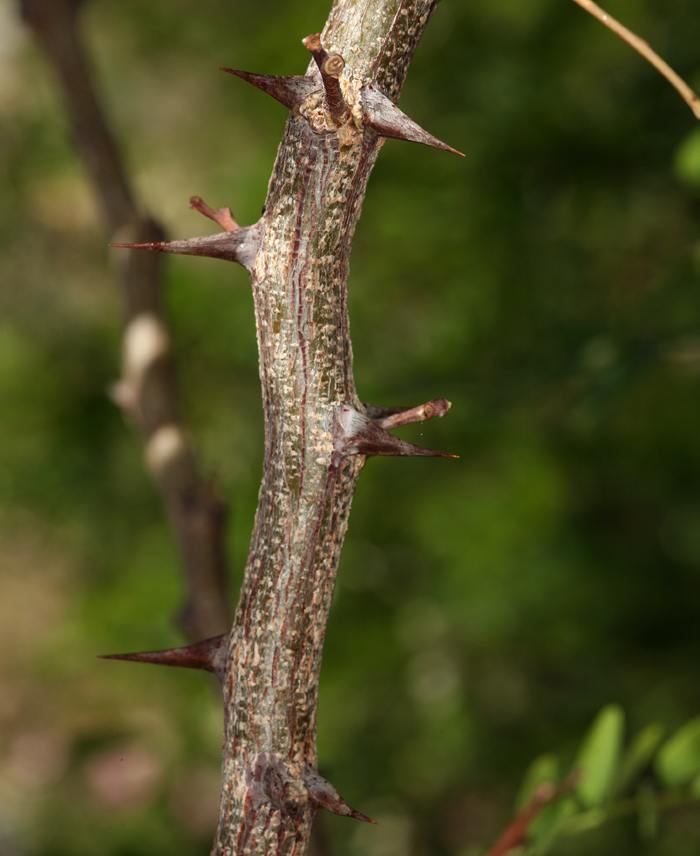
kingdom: Plantae
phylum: Tracheophyta
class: Magnoliopsida
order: Fabales
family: Fabaceae
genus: Robinia
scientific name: Robinia pseudoacacia
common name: Black locust
